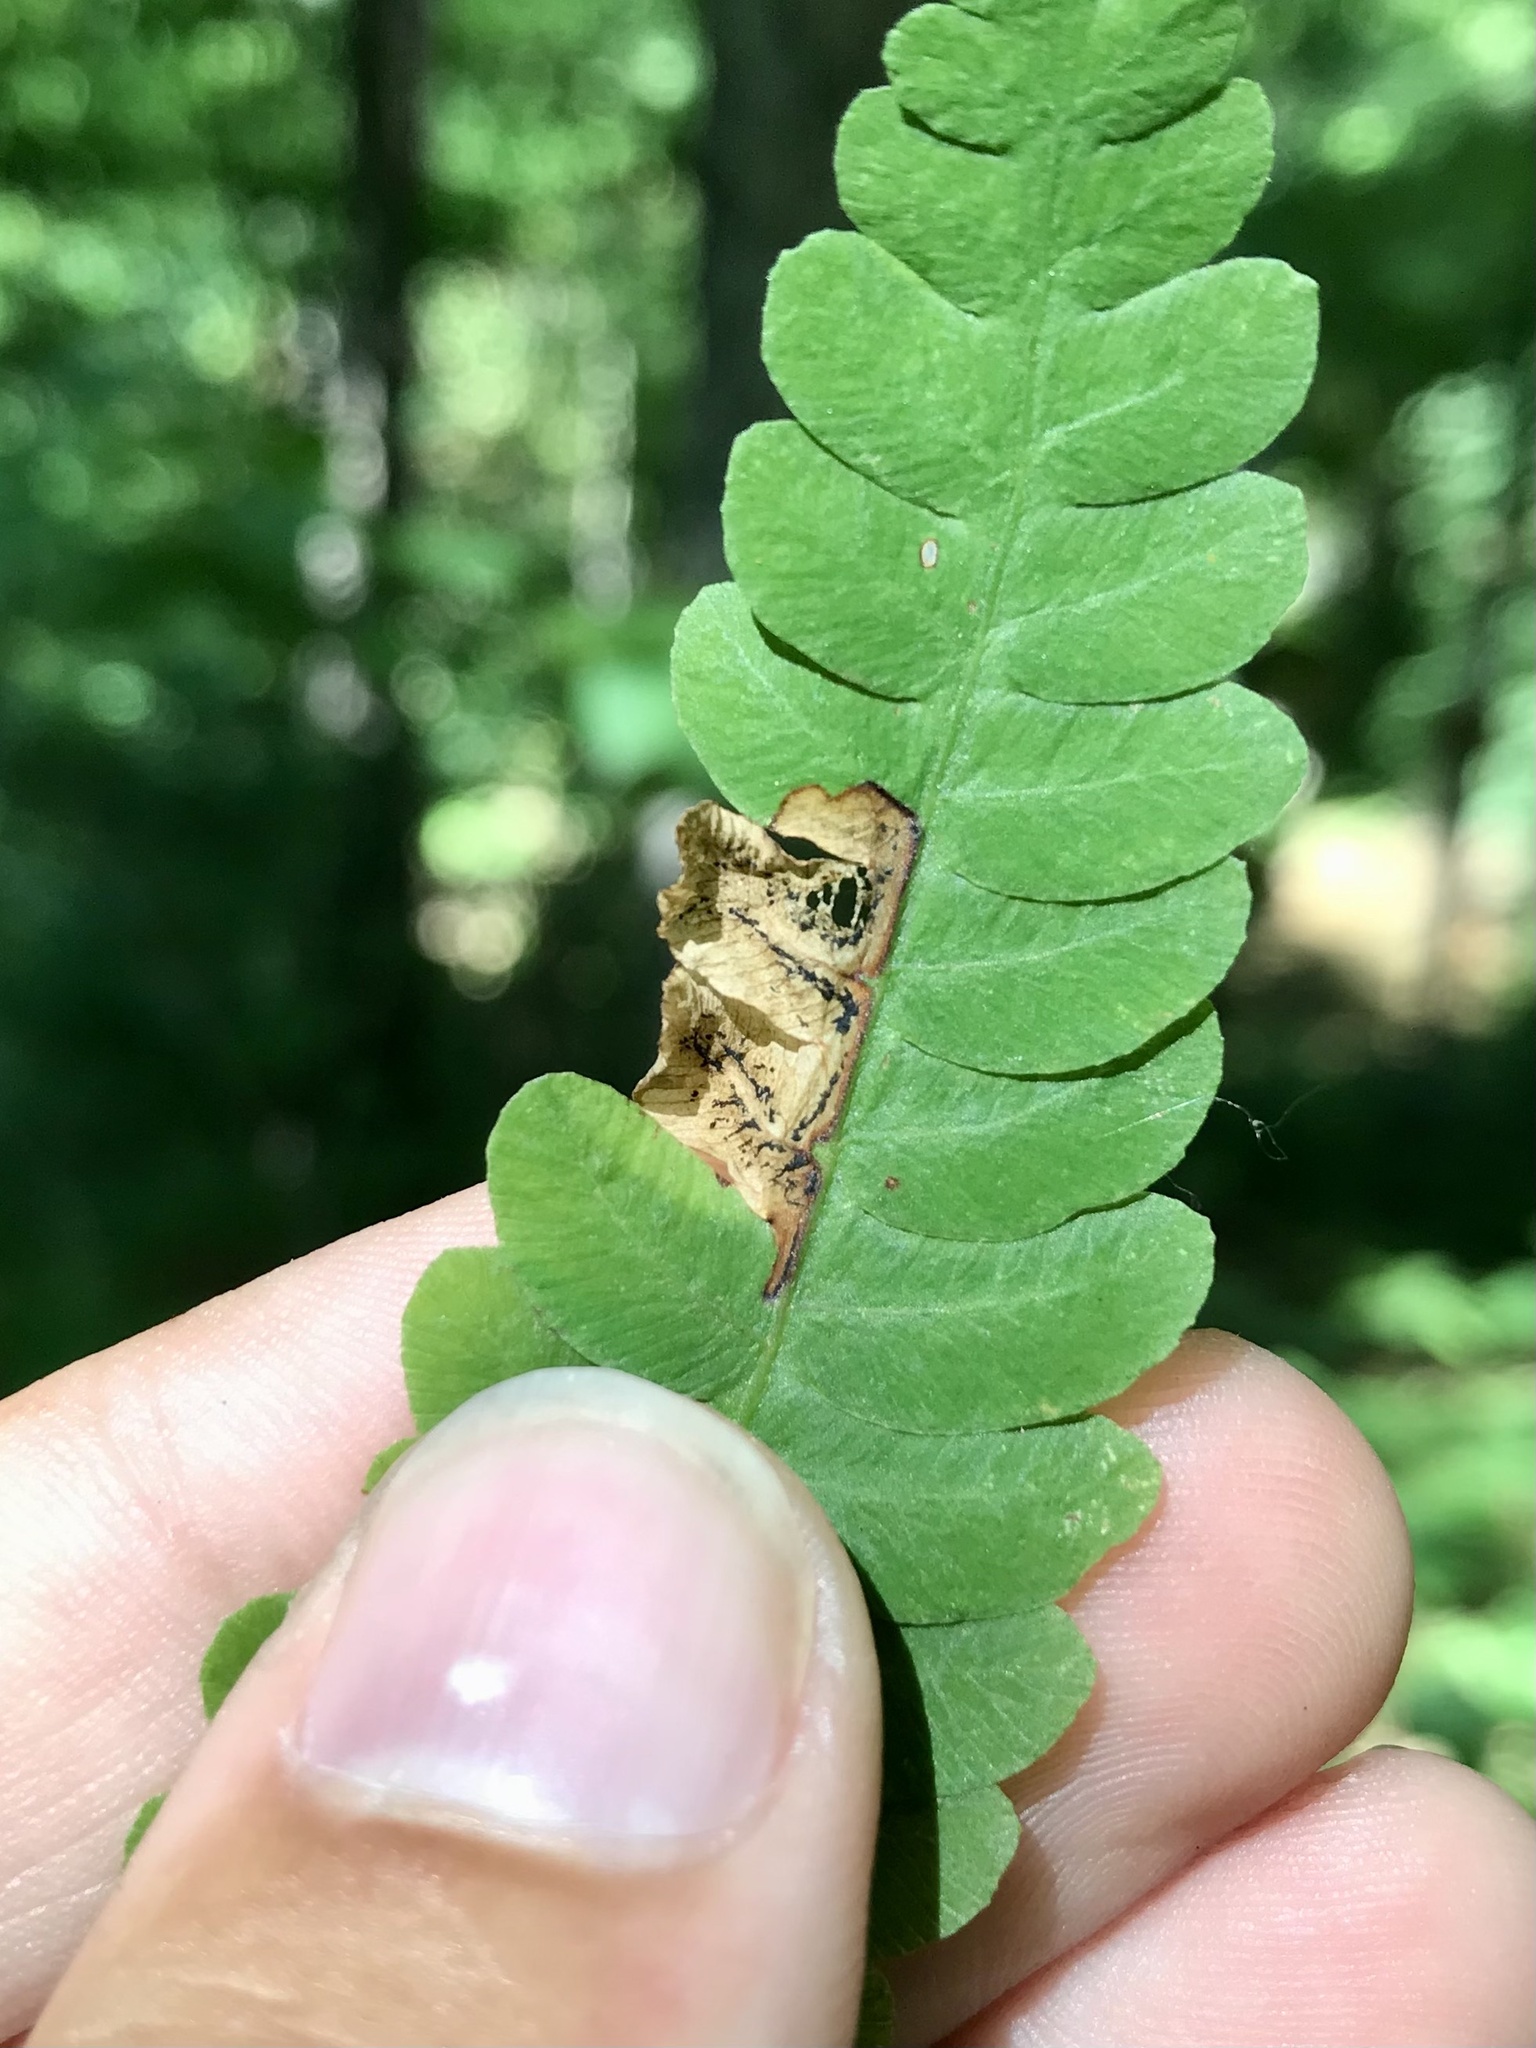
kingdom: Animalia
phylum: Arthropoda
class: Insecta
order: Diptera
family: Anthomyiidae
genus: Chirosia
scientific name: Chirosia filicis
